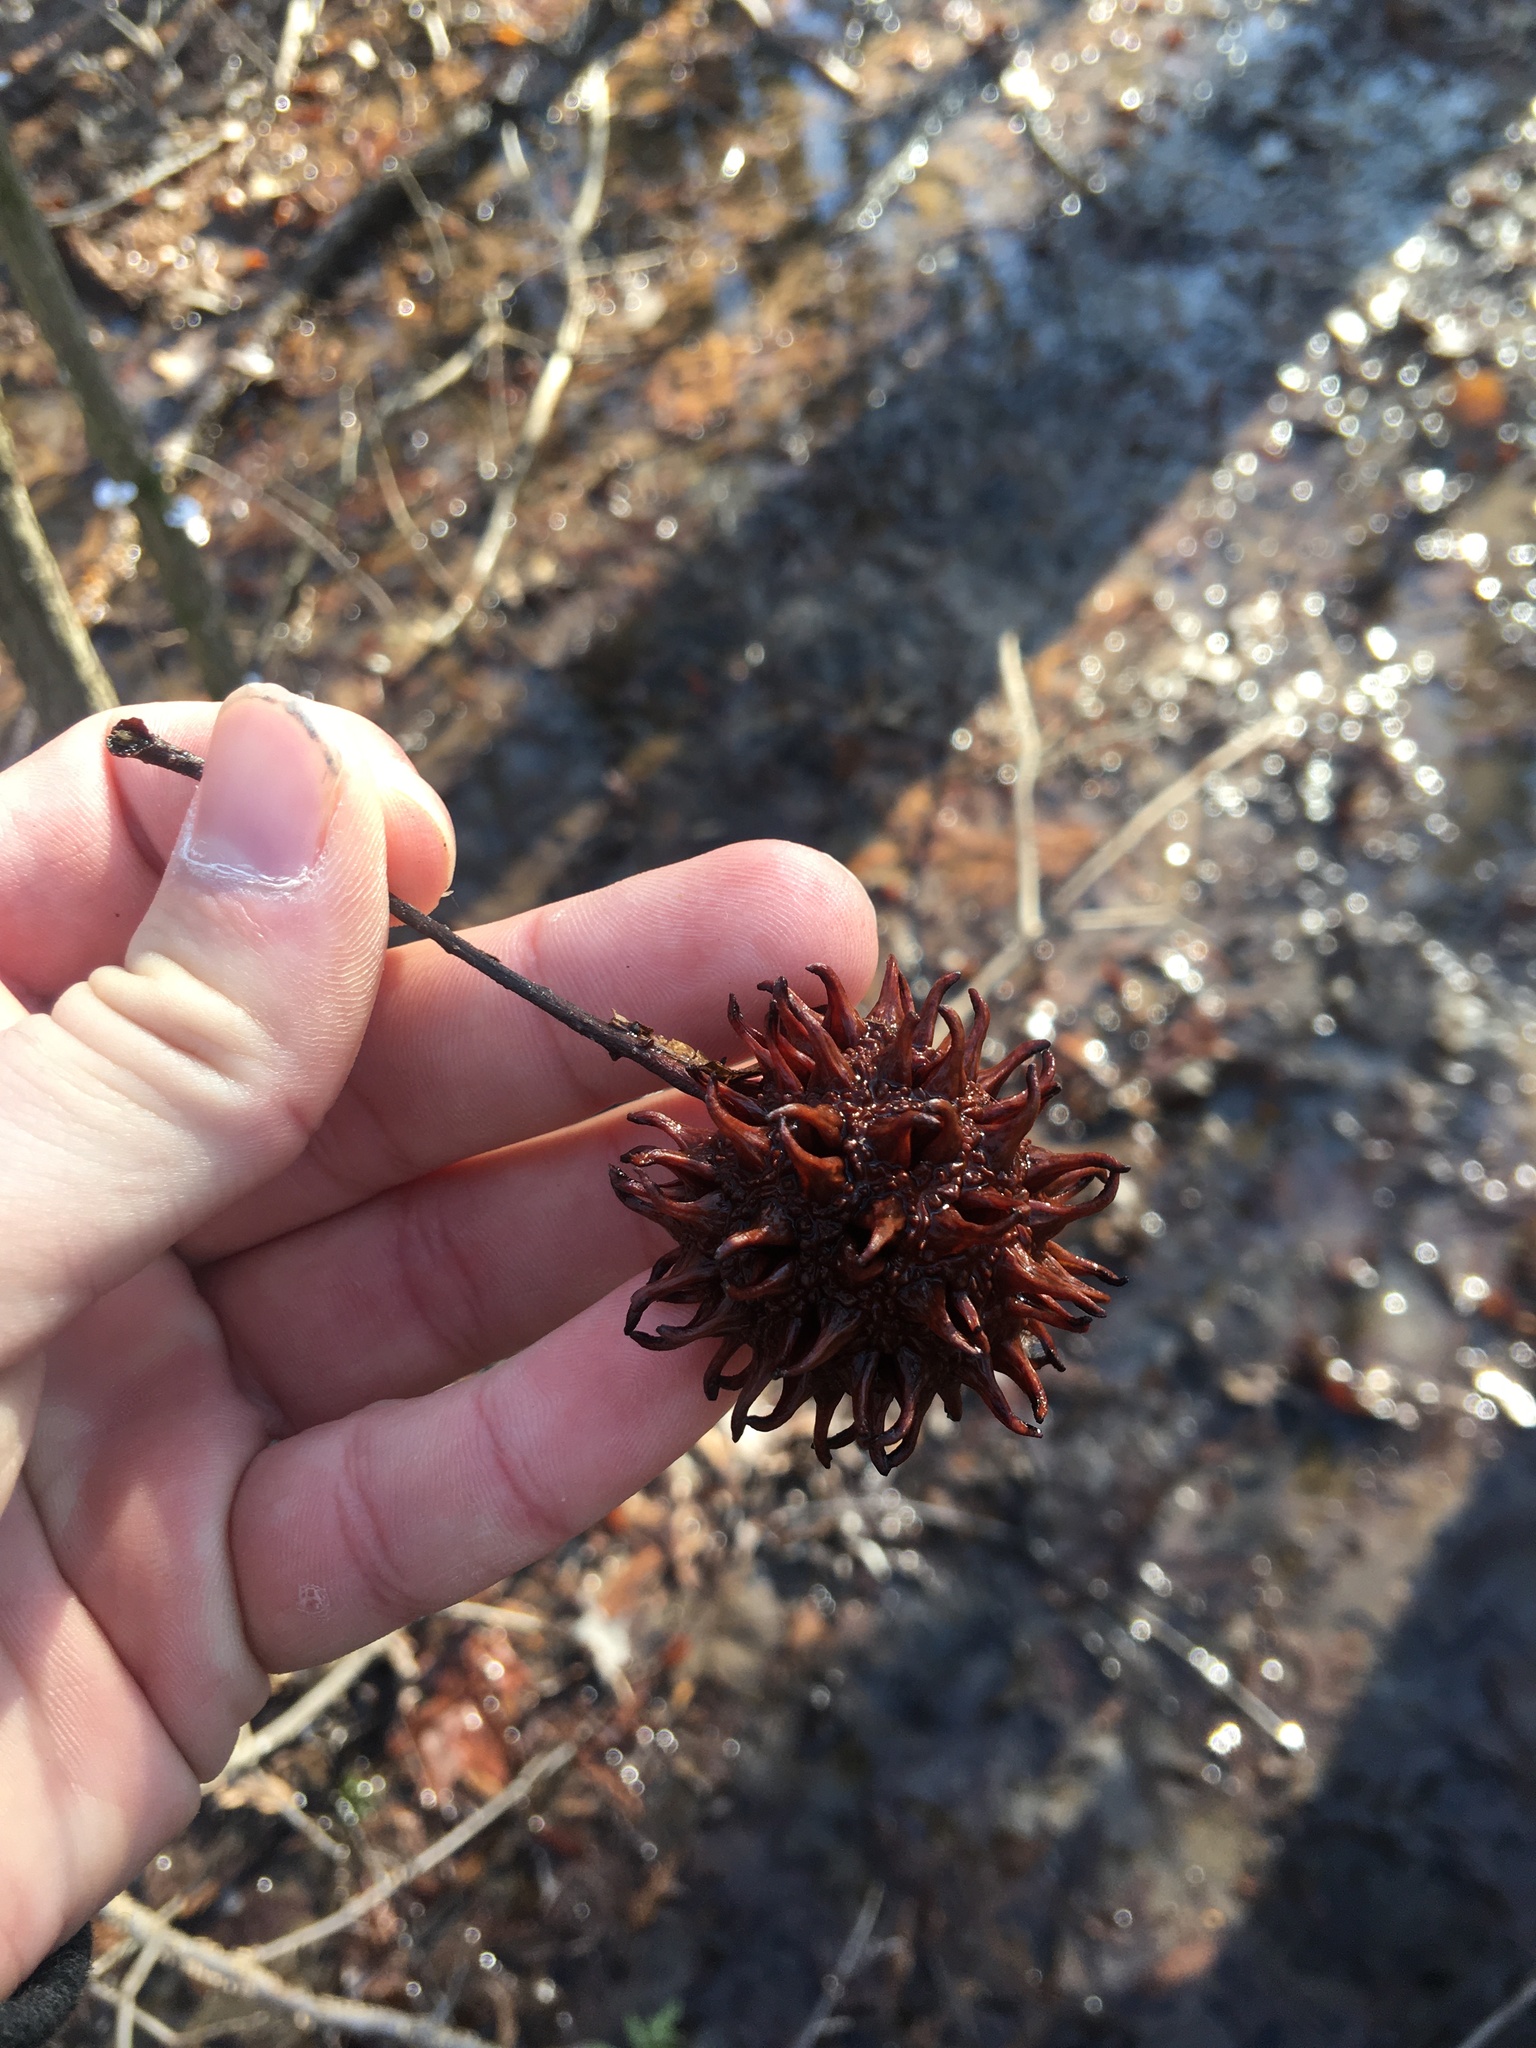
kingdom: Plantae
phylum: Tracheophyta
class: Magnoliopsida
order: Saxifragales
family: Altingiaceae
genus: Liquidambar
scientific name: Liquidambar styraciflua
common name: Sweet gum
